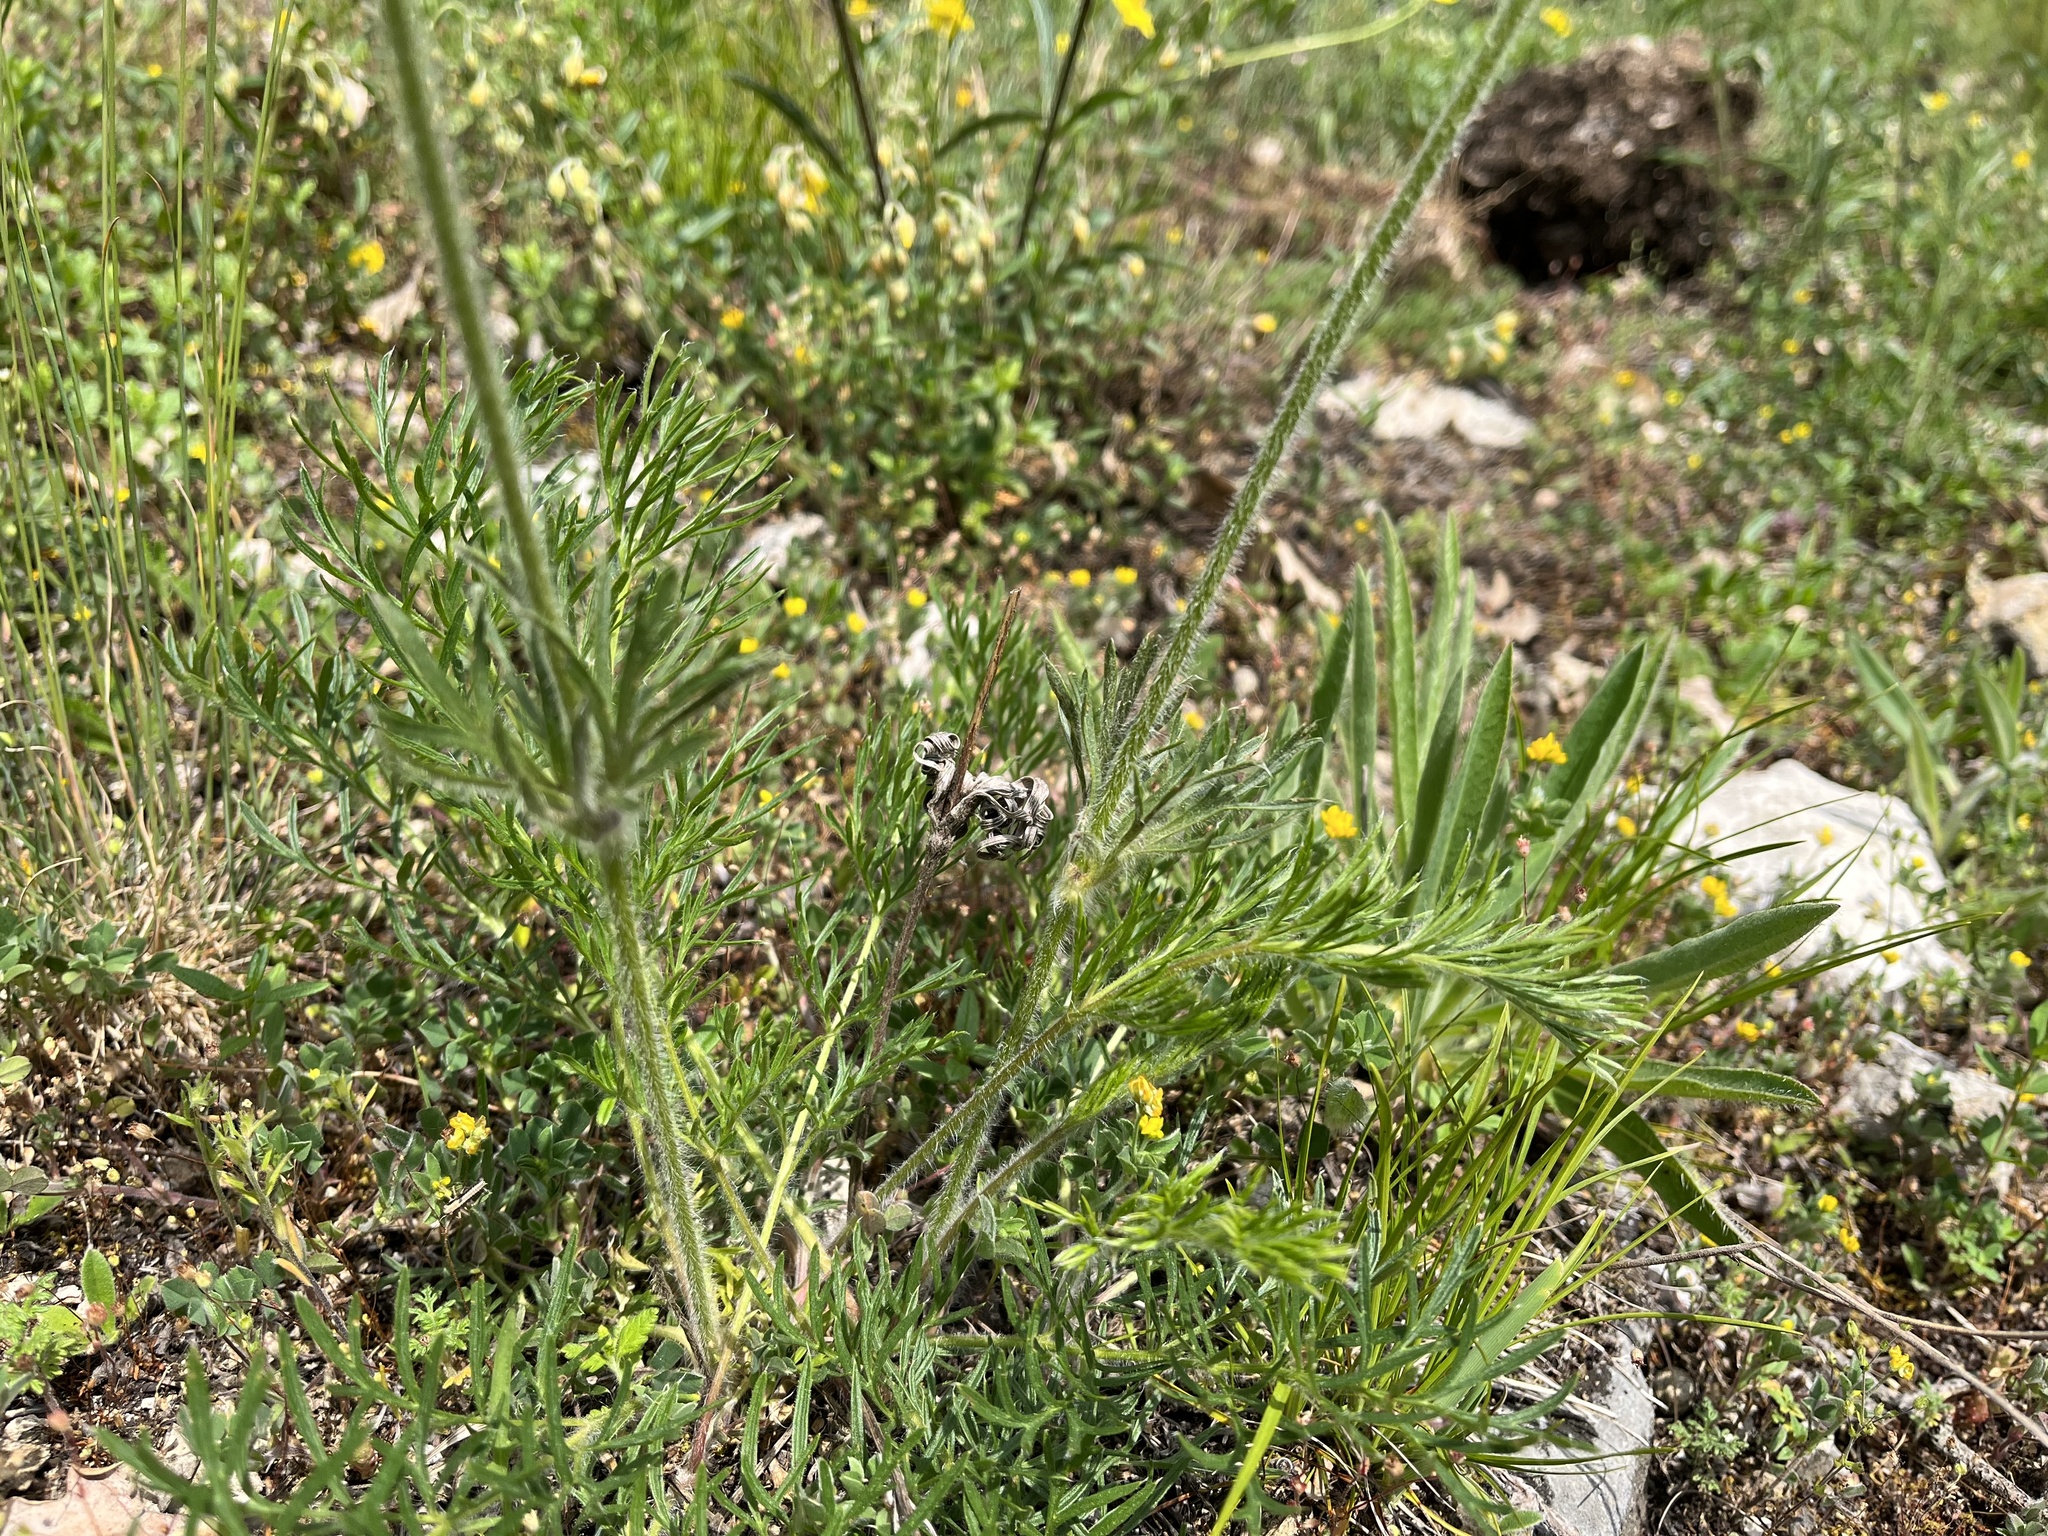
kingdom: Plantae
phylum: Tracheophyta
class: Magnoliopsida
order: Ranunculales
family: Ranunculaceae
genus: Pulsatilla
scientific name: Pulsatilla pratensis
